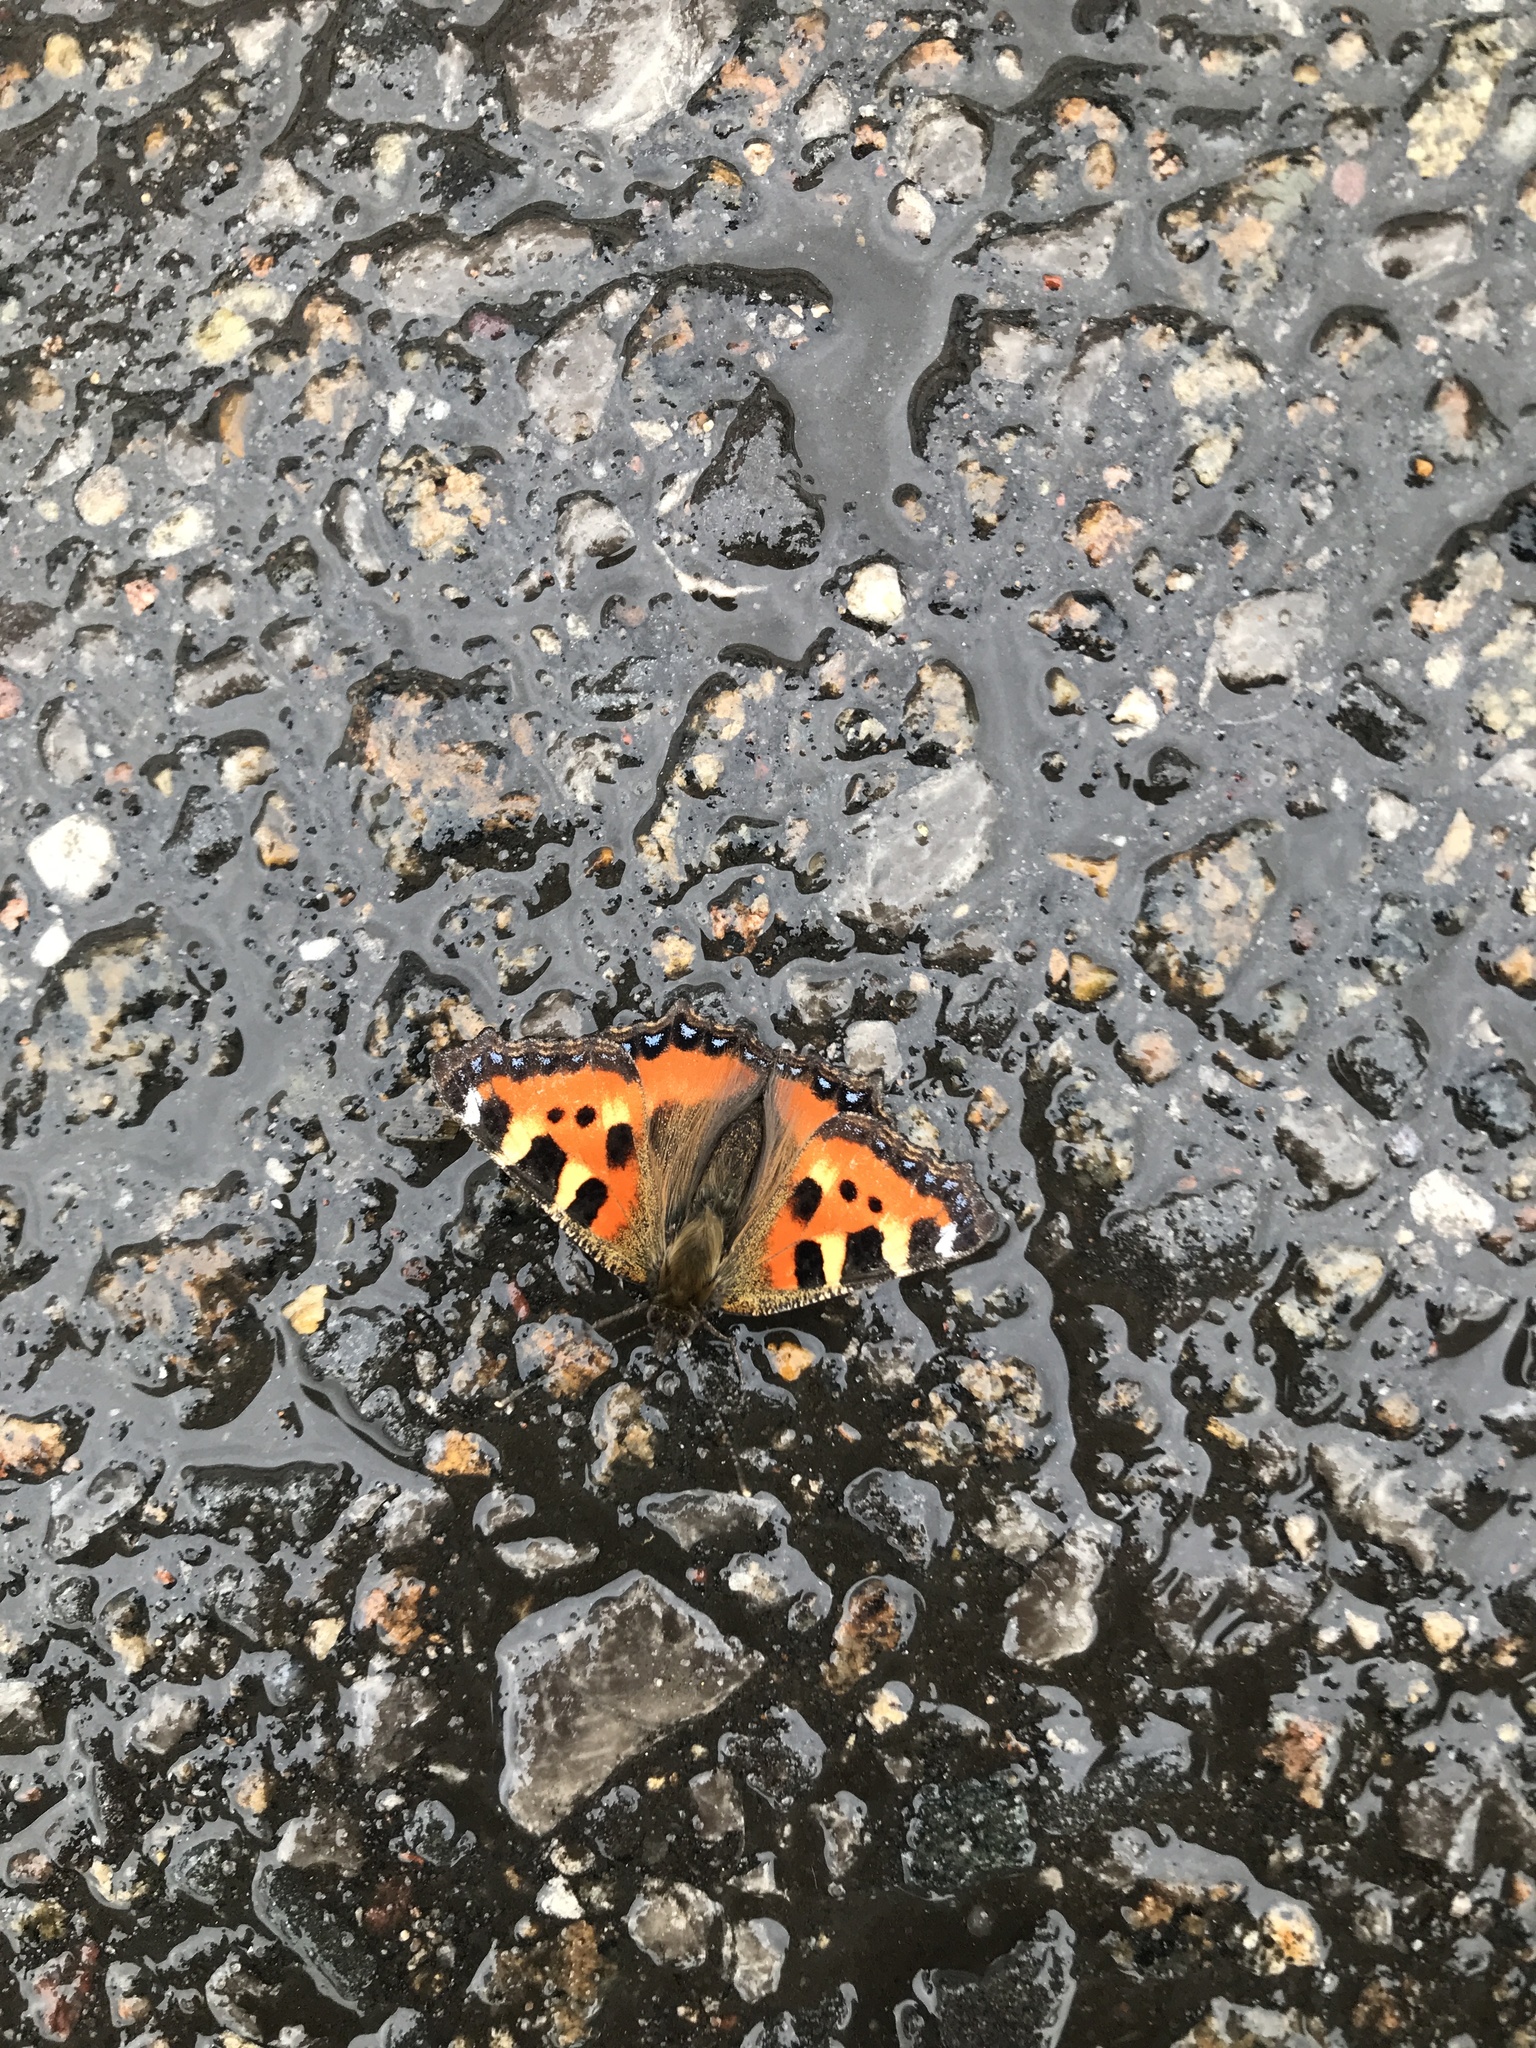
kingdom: Animalia
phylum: Arthropoda
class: Insecta
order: Lepidoptera
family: Nymphalidae
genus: Aglais
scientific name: Aglais urticae
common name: Small tortoiseshell
